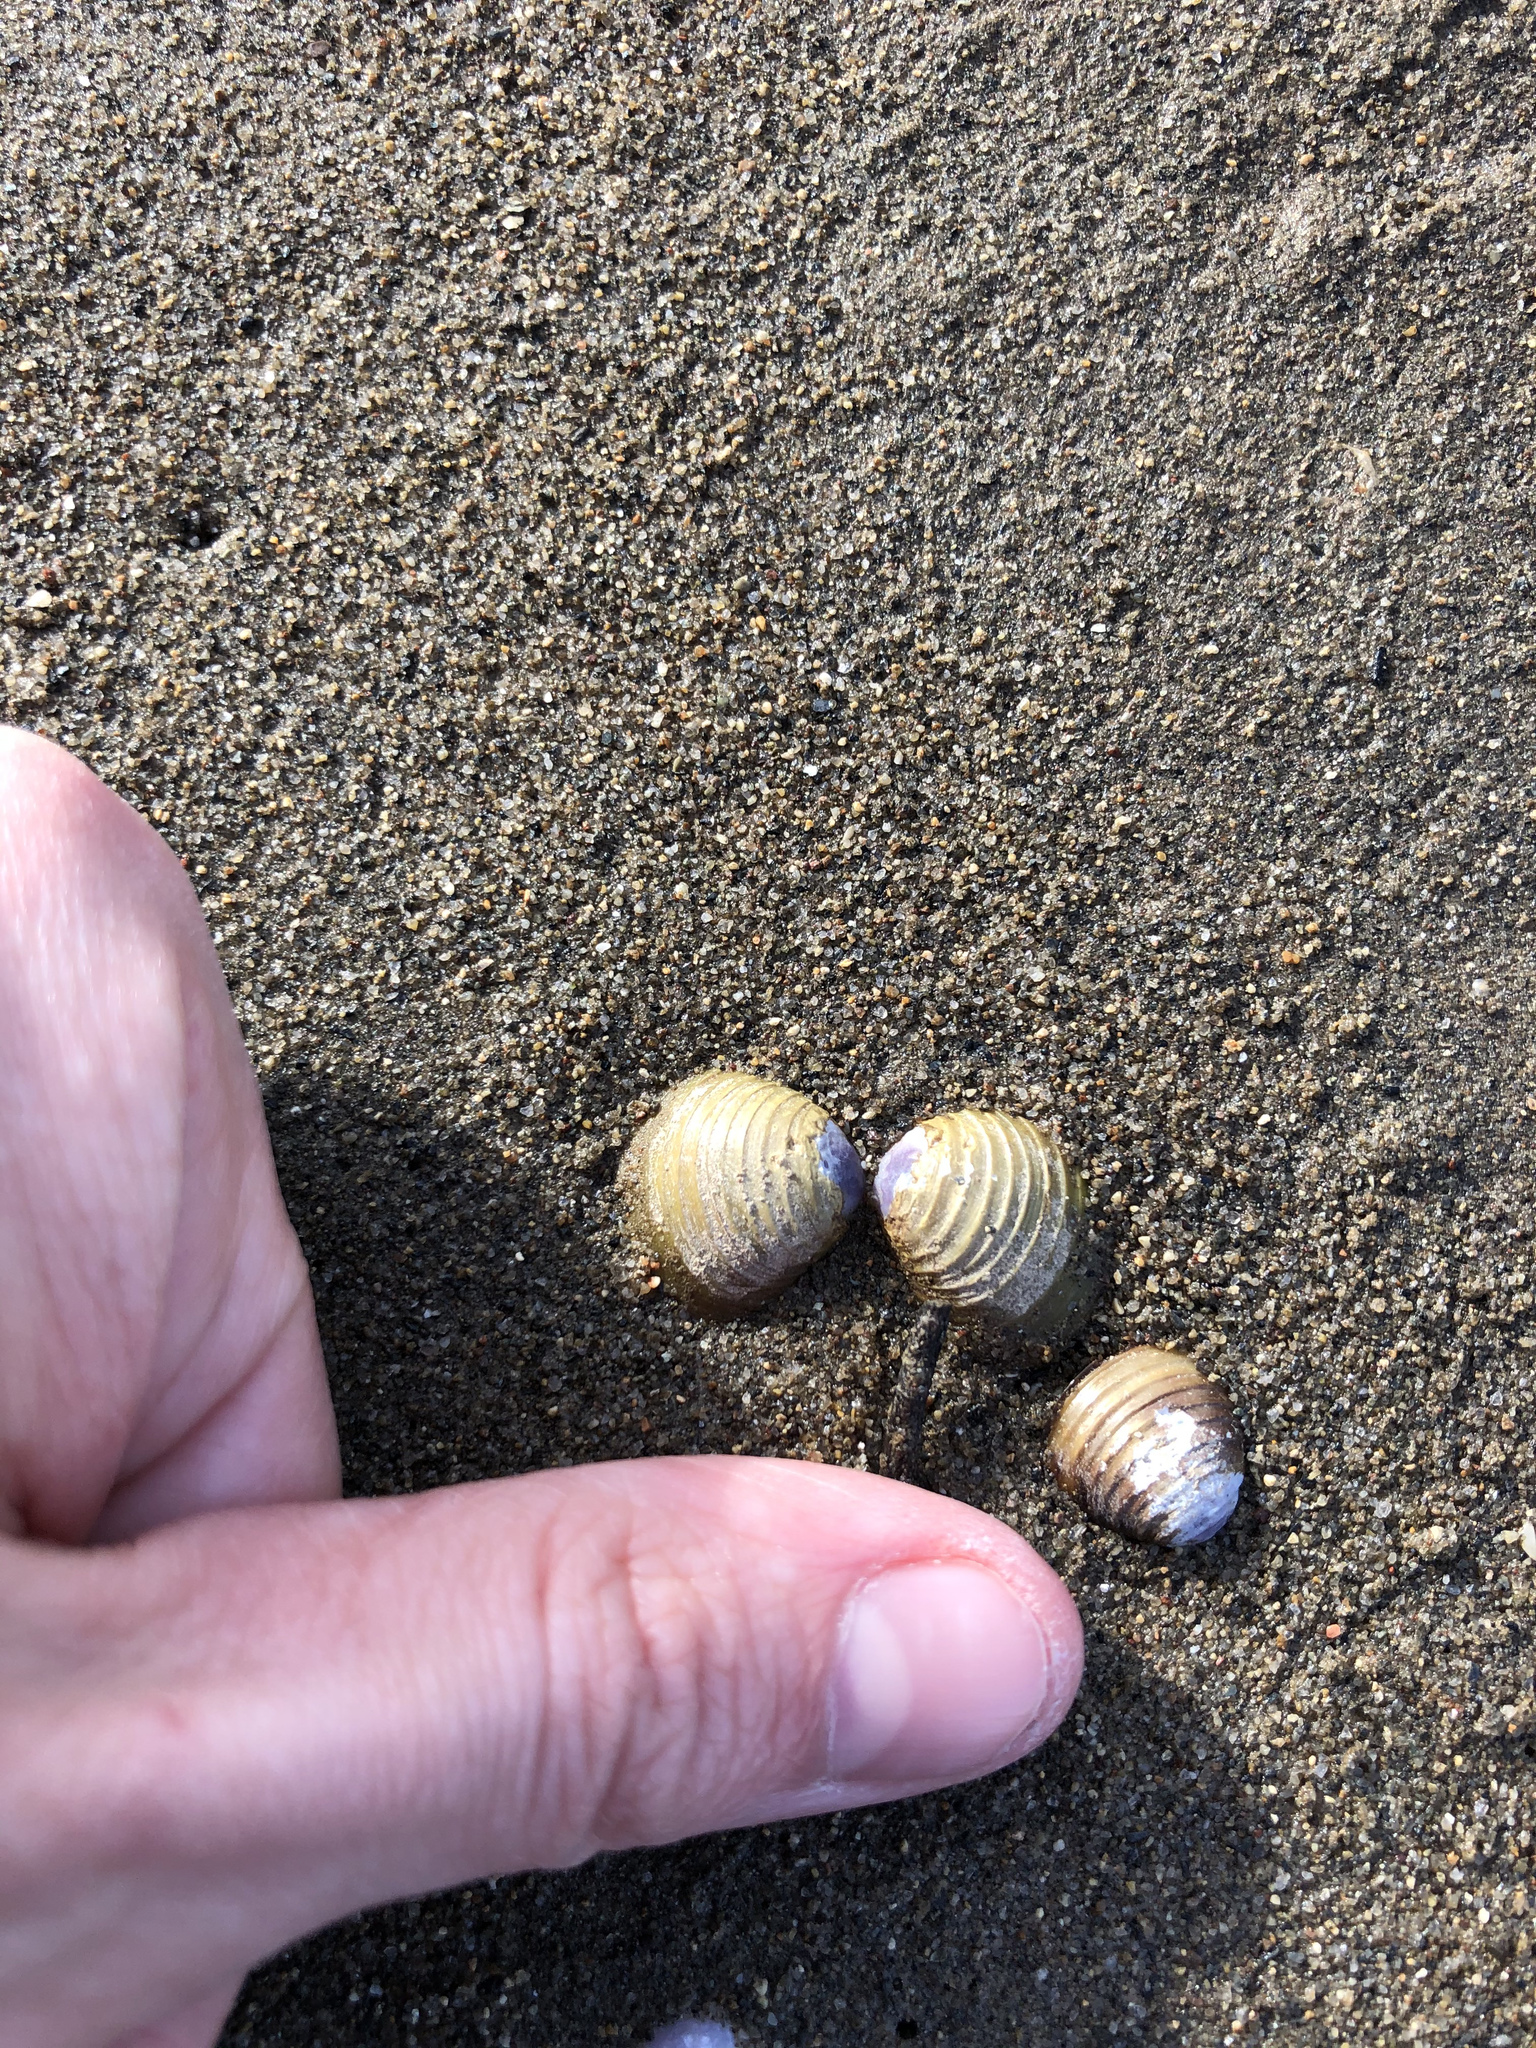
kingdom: Animalia
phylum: Mollusca
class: Bivalvia
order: Venerida
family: Cyrenidae
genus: Corbicula
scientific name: Corbicula fluminea
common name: Asian clam
